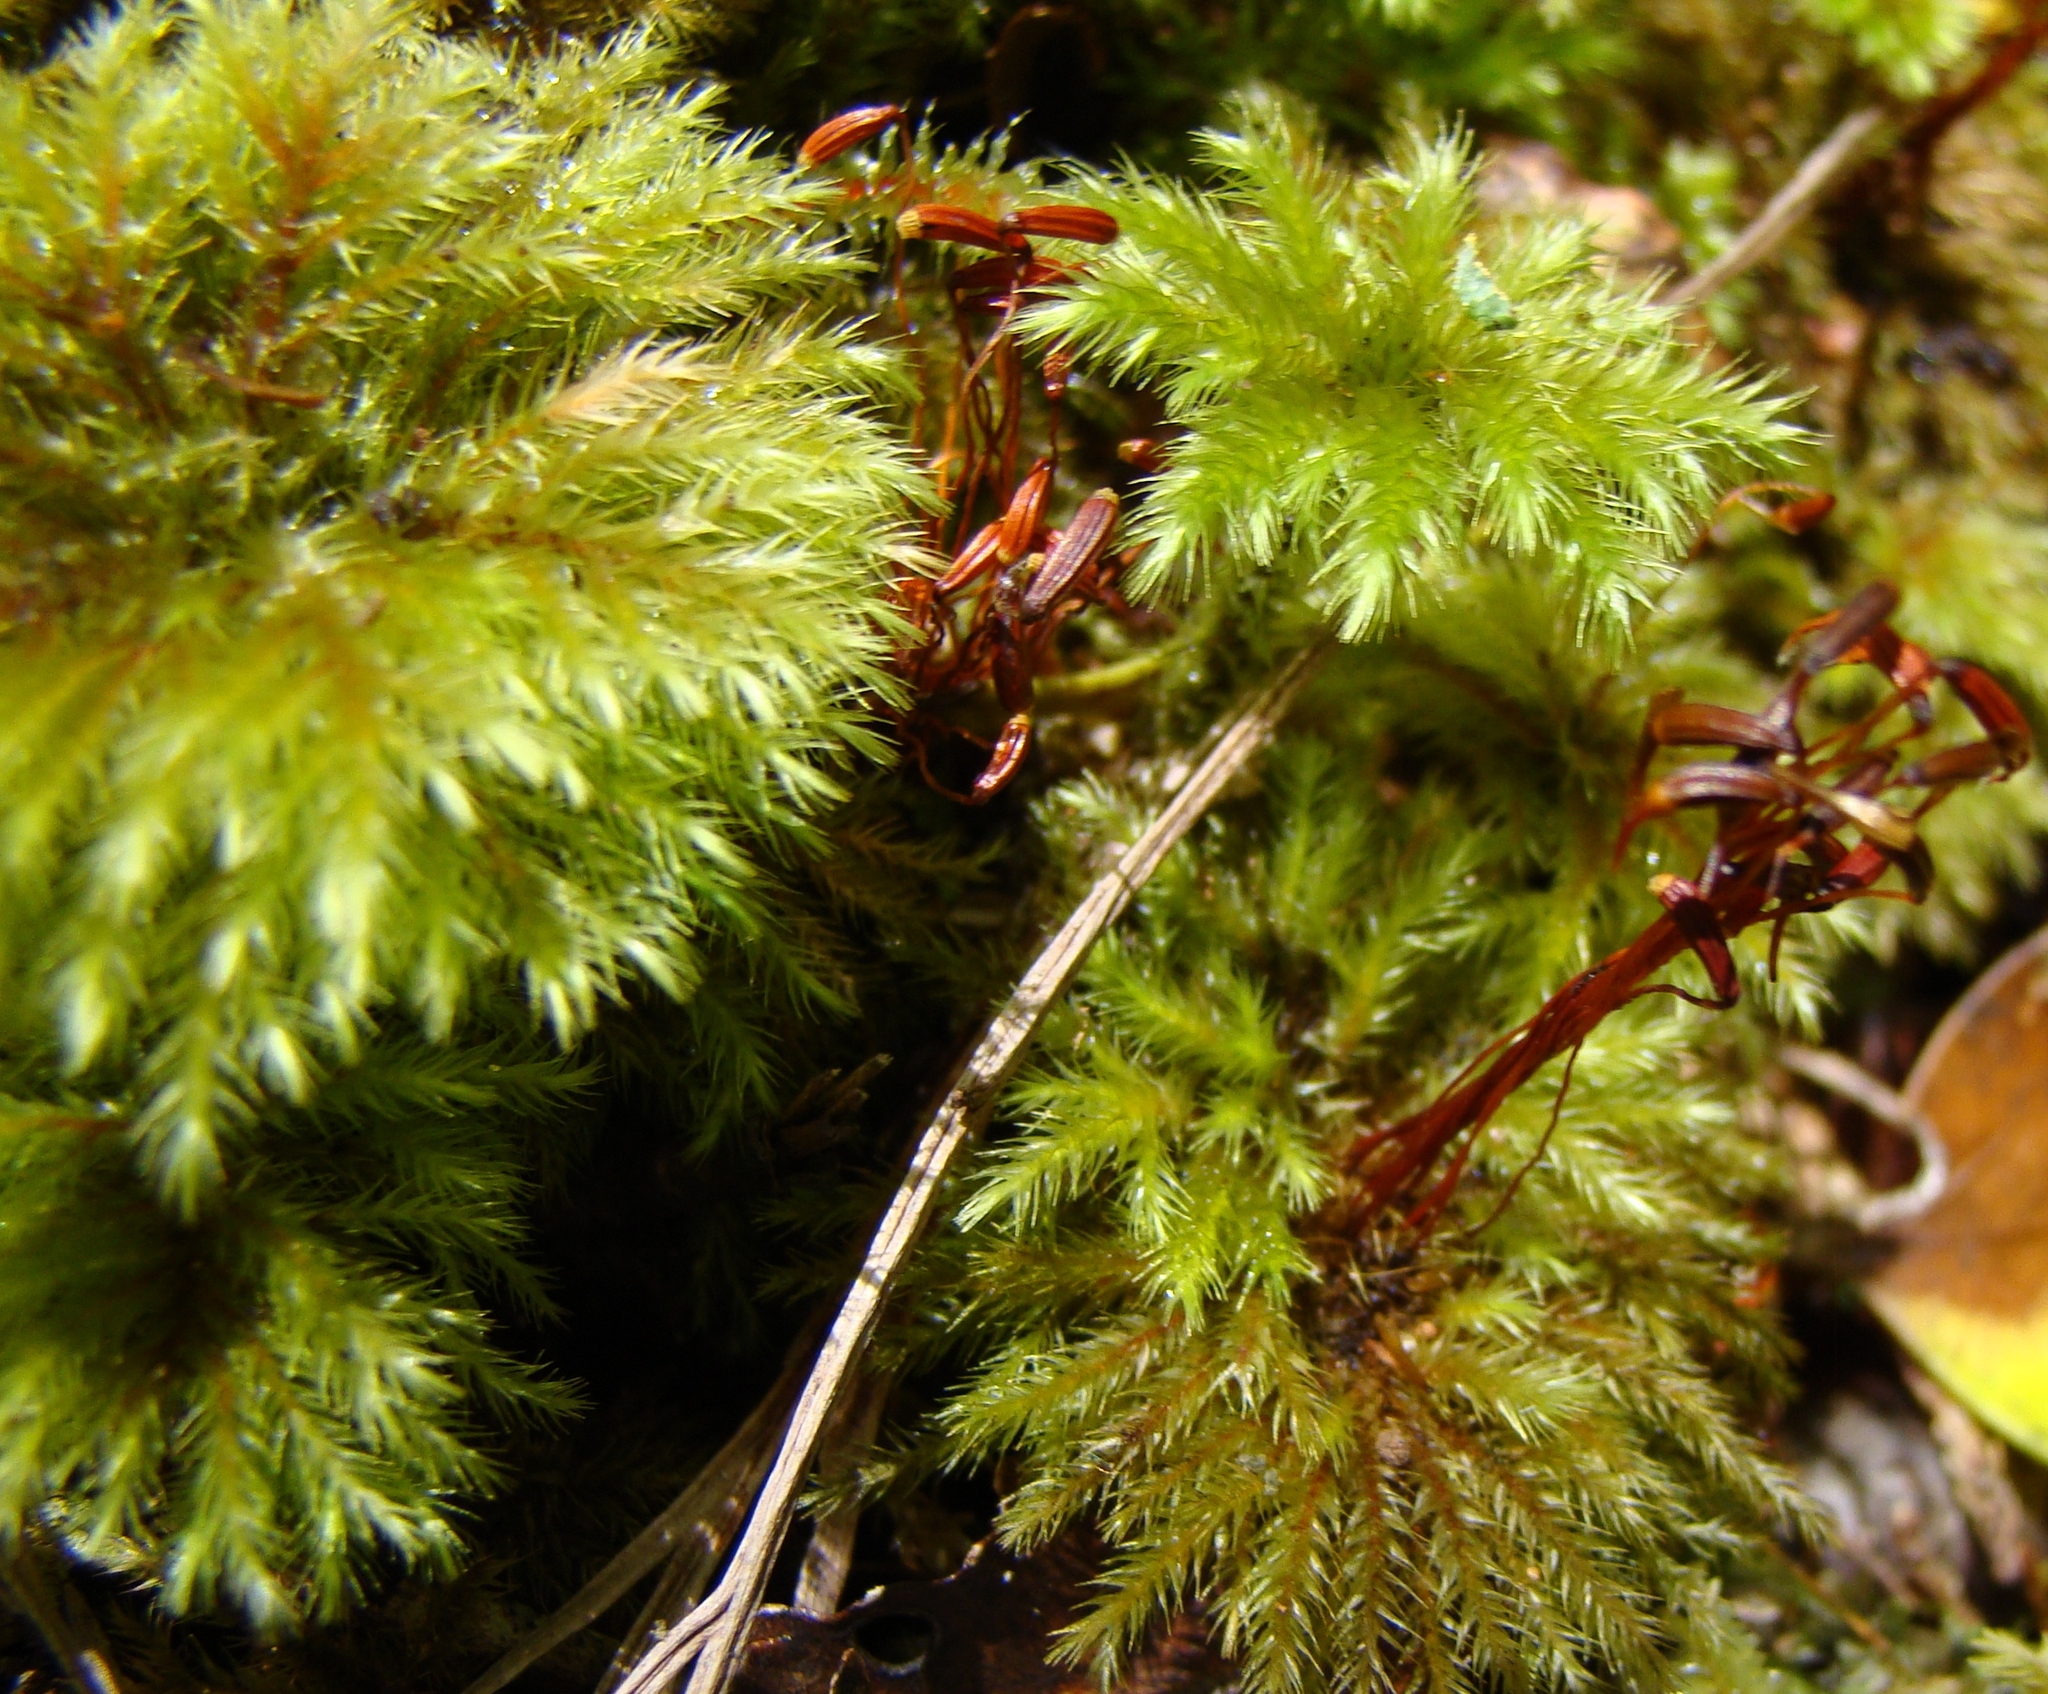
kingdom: Plantae
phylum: Bryophyta
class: Bryopsida
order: Hypnodendrales
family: Spiridentaceae
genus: Hypnodendron
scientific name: Hypnodendron
